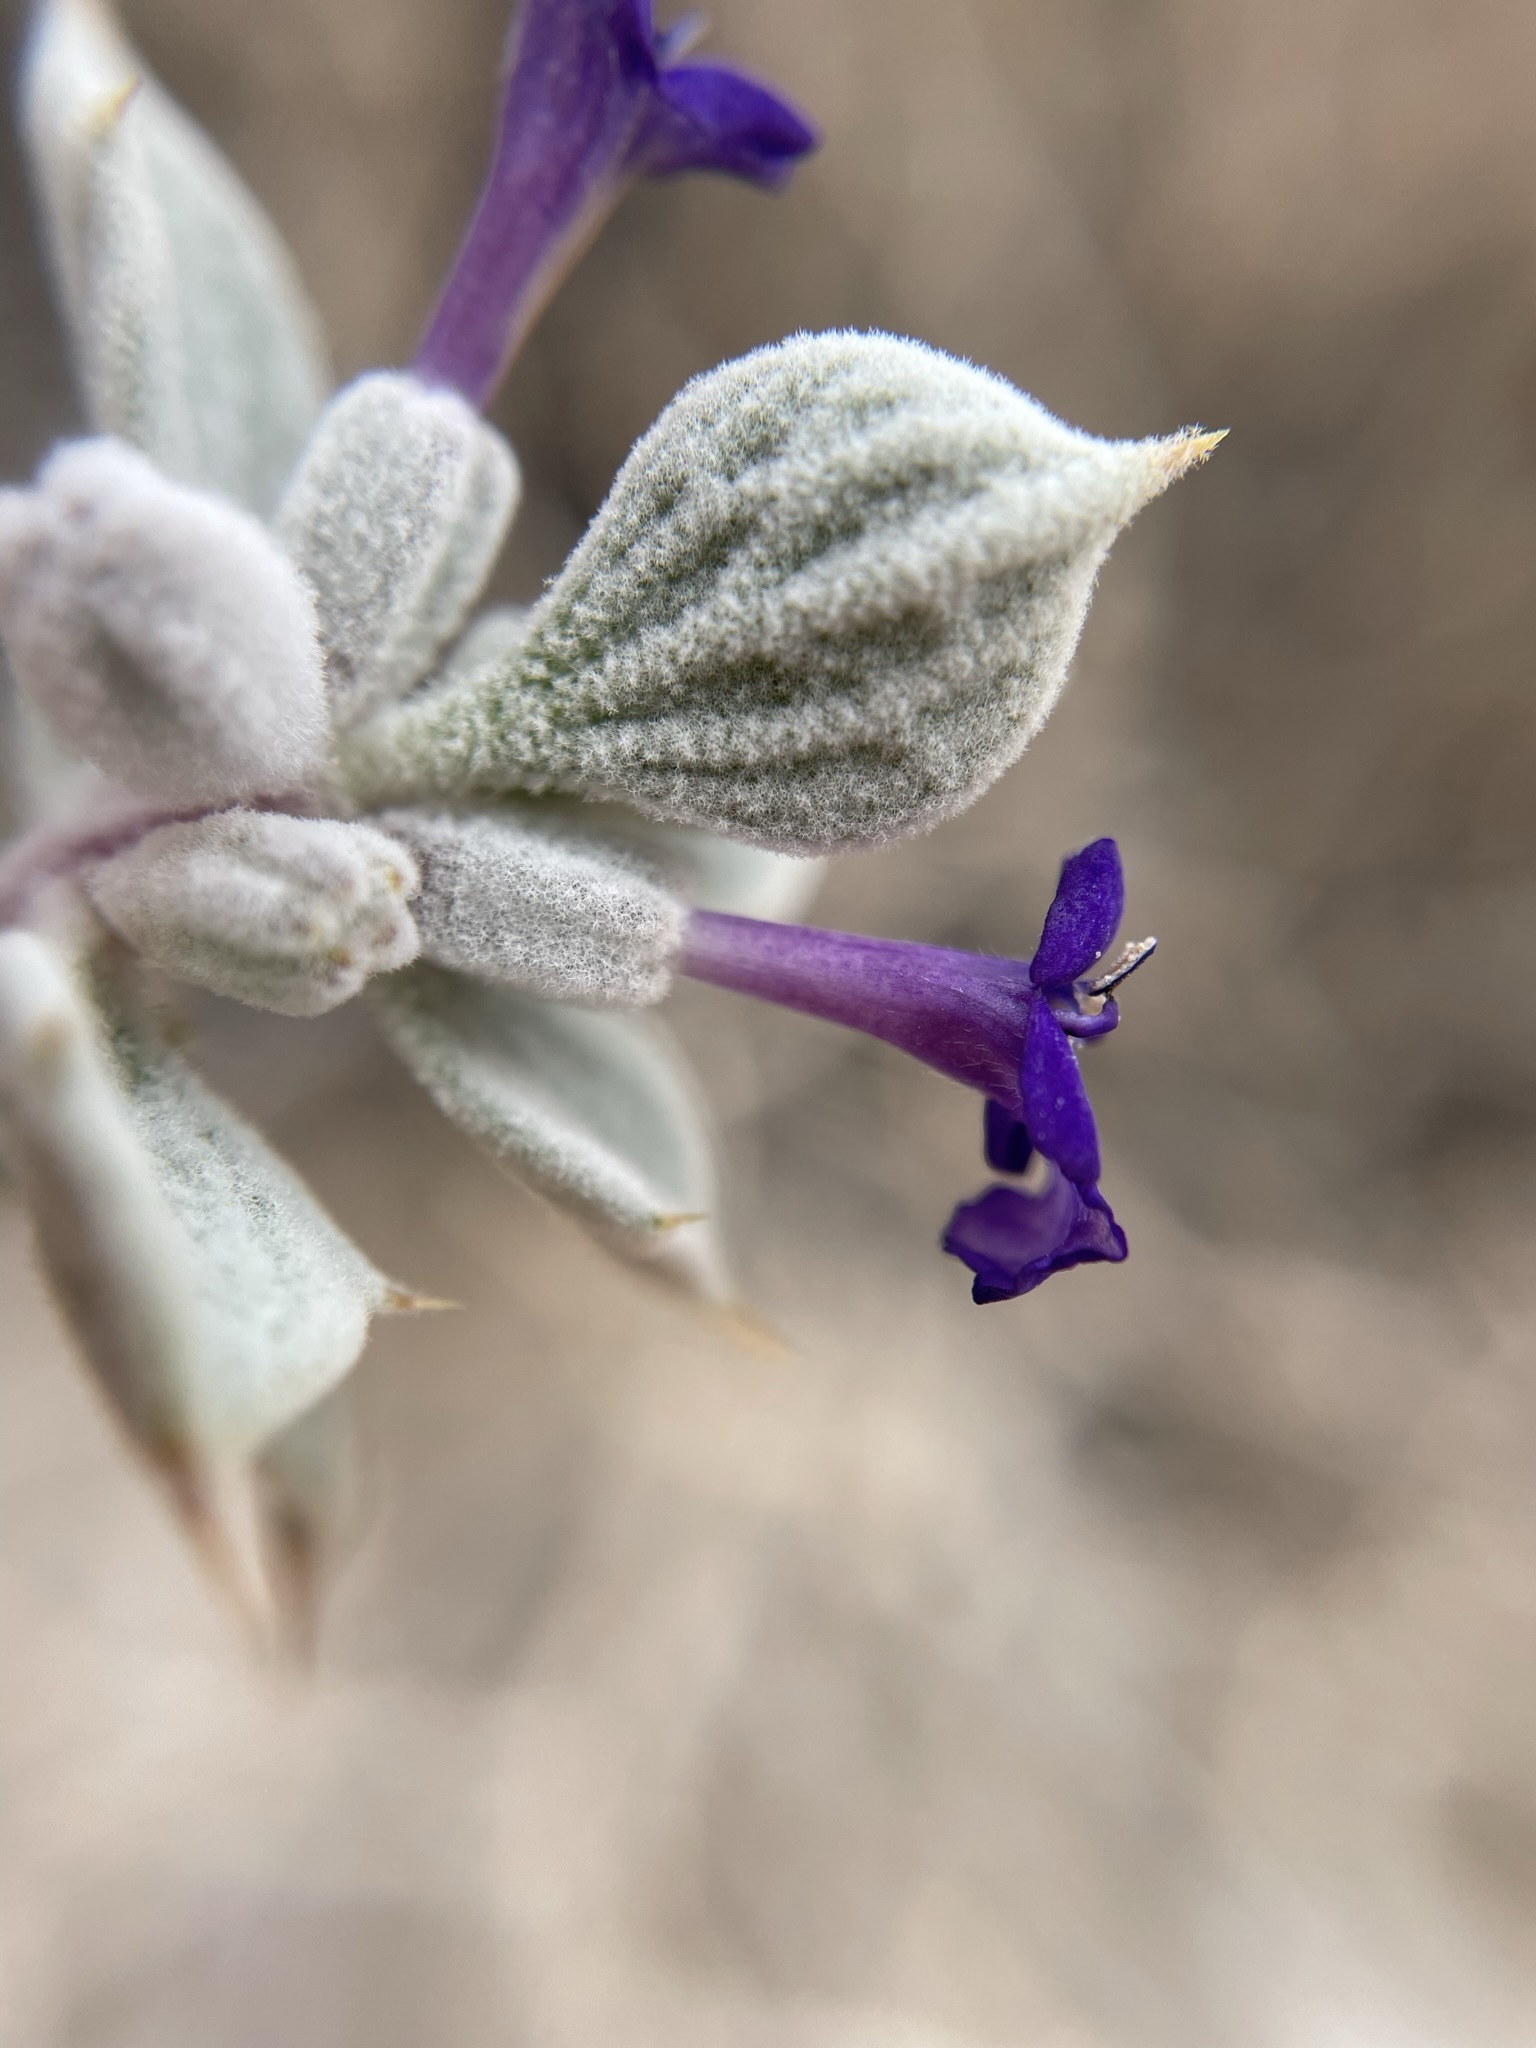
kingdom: Plantae
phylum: Tracheophyta
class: Magnoliopsida
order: Lamiales
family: Lamiaceae
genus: Salvia
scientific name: Salvia funerea
